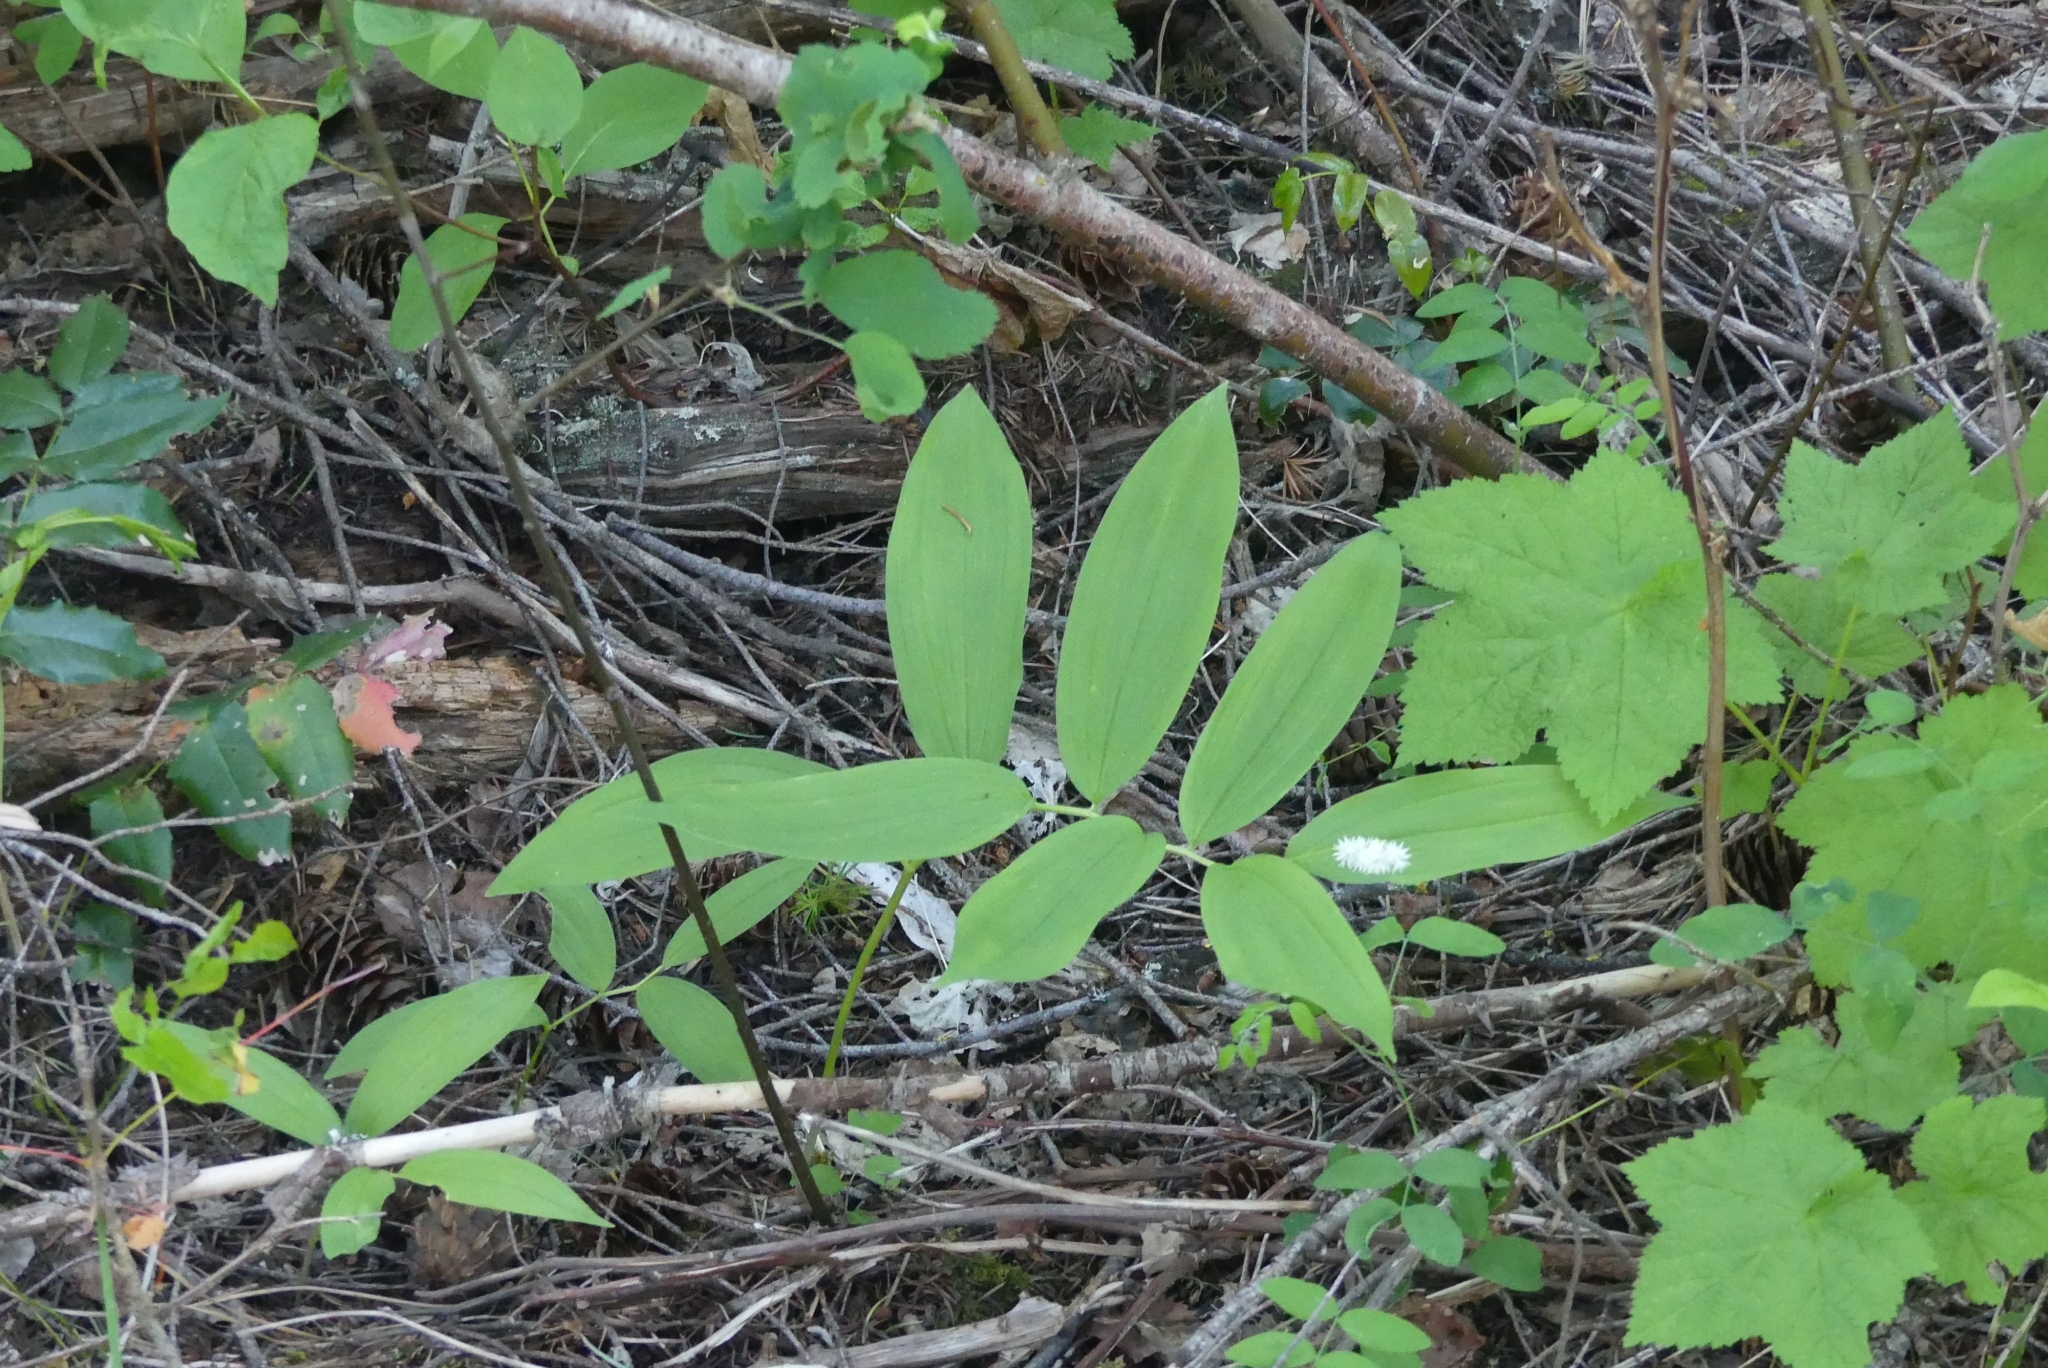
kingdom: Plantae
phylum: Tracheophyta
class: Liliopsida
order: Asparagales
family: Asparagaceae
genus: Maianthemum
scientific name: Maianthemum racemosum
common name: False spikenard
